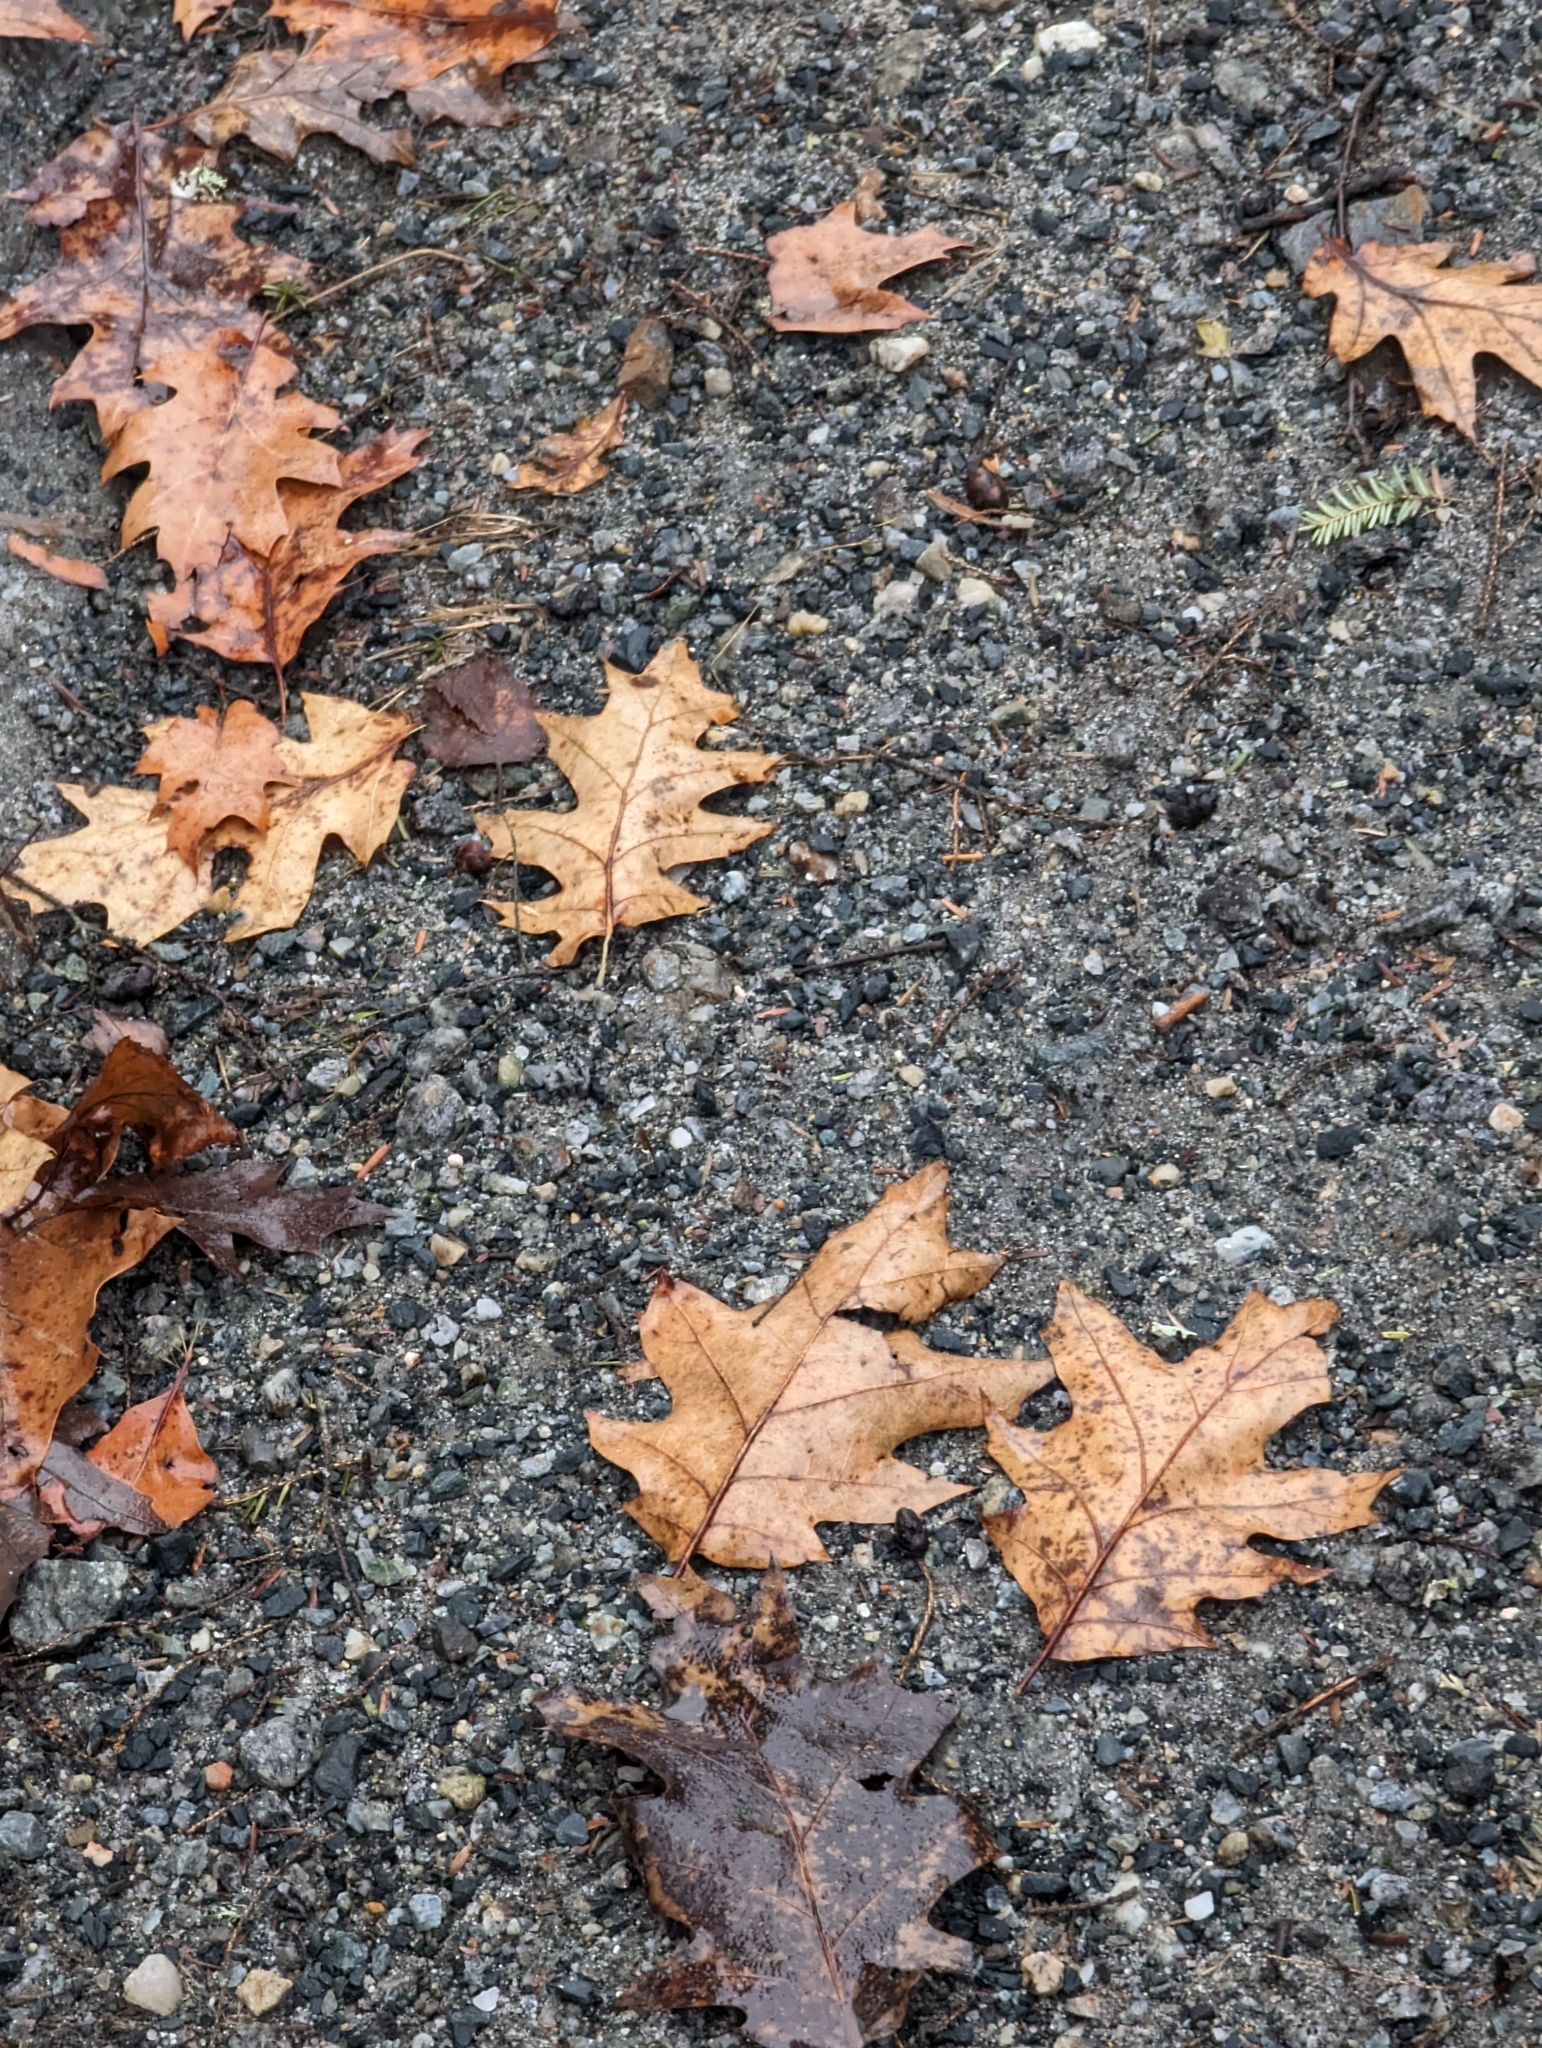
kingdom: Plantae
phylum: Tracheophyta
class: Magnoliopsida
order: Fagales
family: Fagaceae
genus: Quercus
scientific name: Quercus rubra
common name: Red oak
